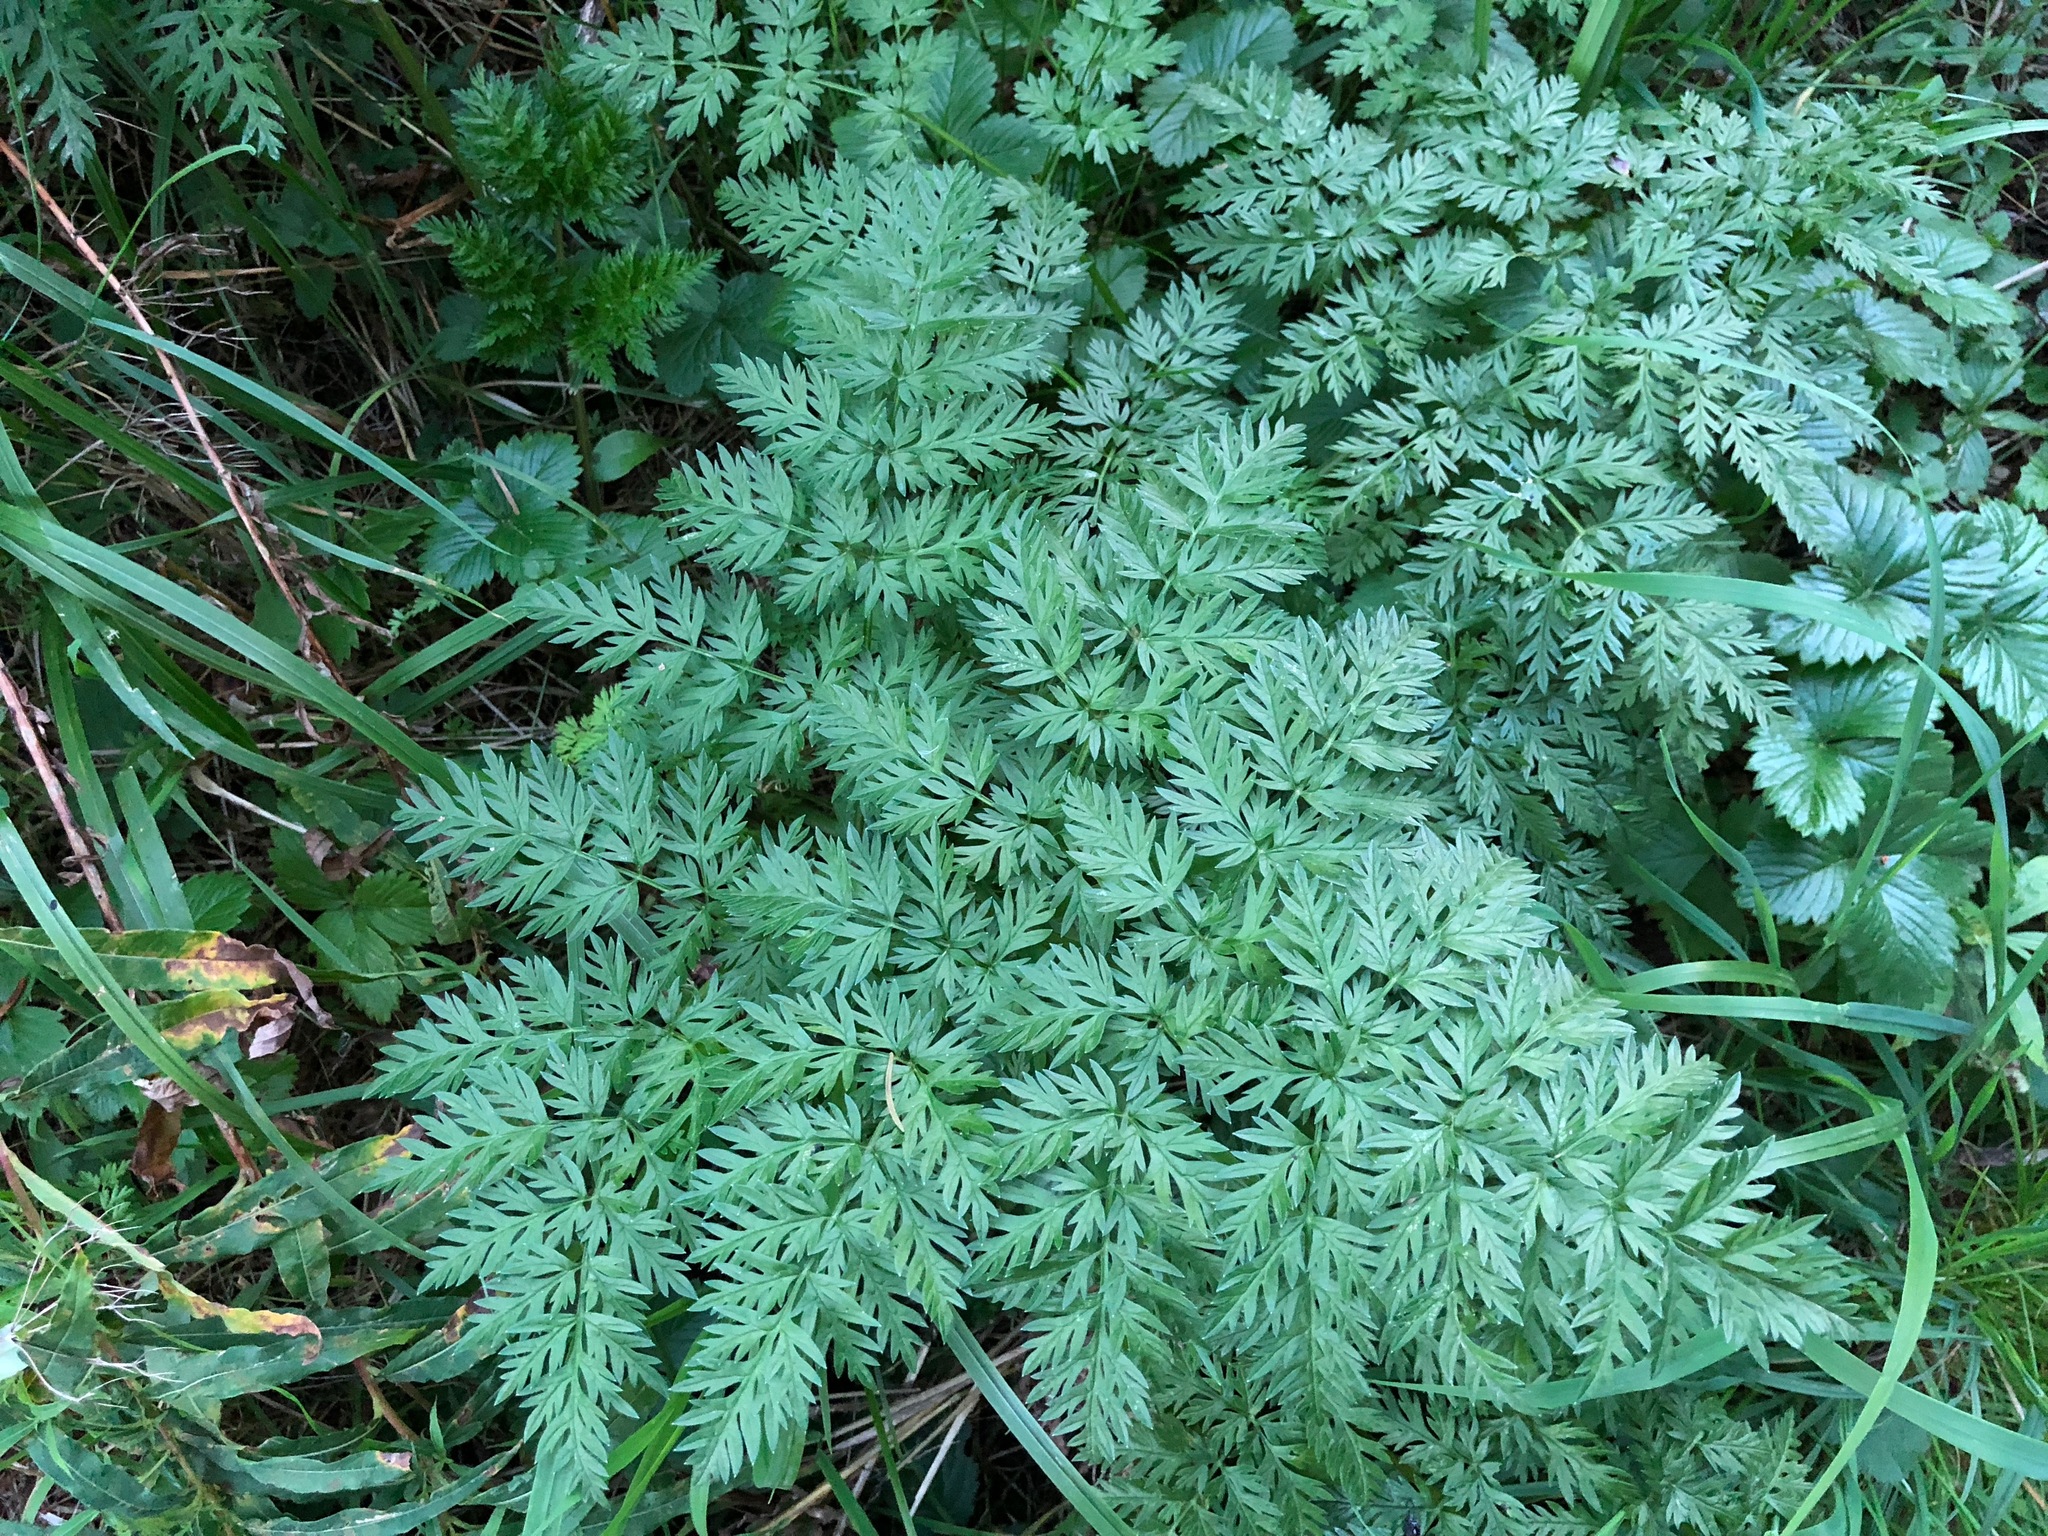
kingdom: Plantae
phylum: Tracheophyta
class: Magnoliopsida
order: Apiales
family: Apiaceae
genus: Daucus
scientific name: Daucus carota
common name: Wild carrot
